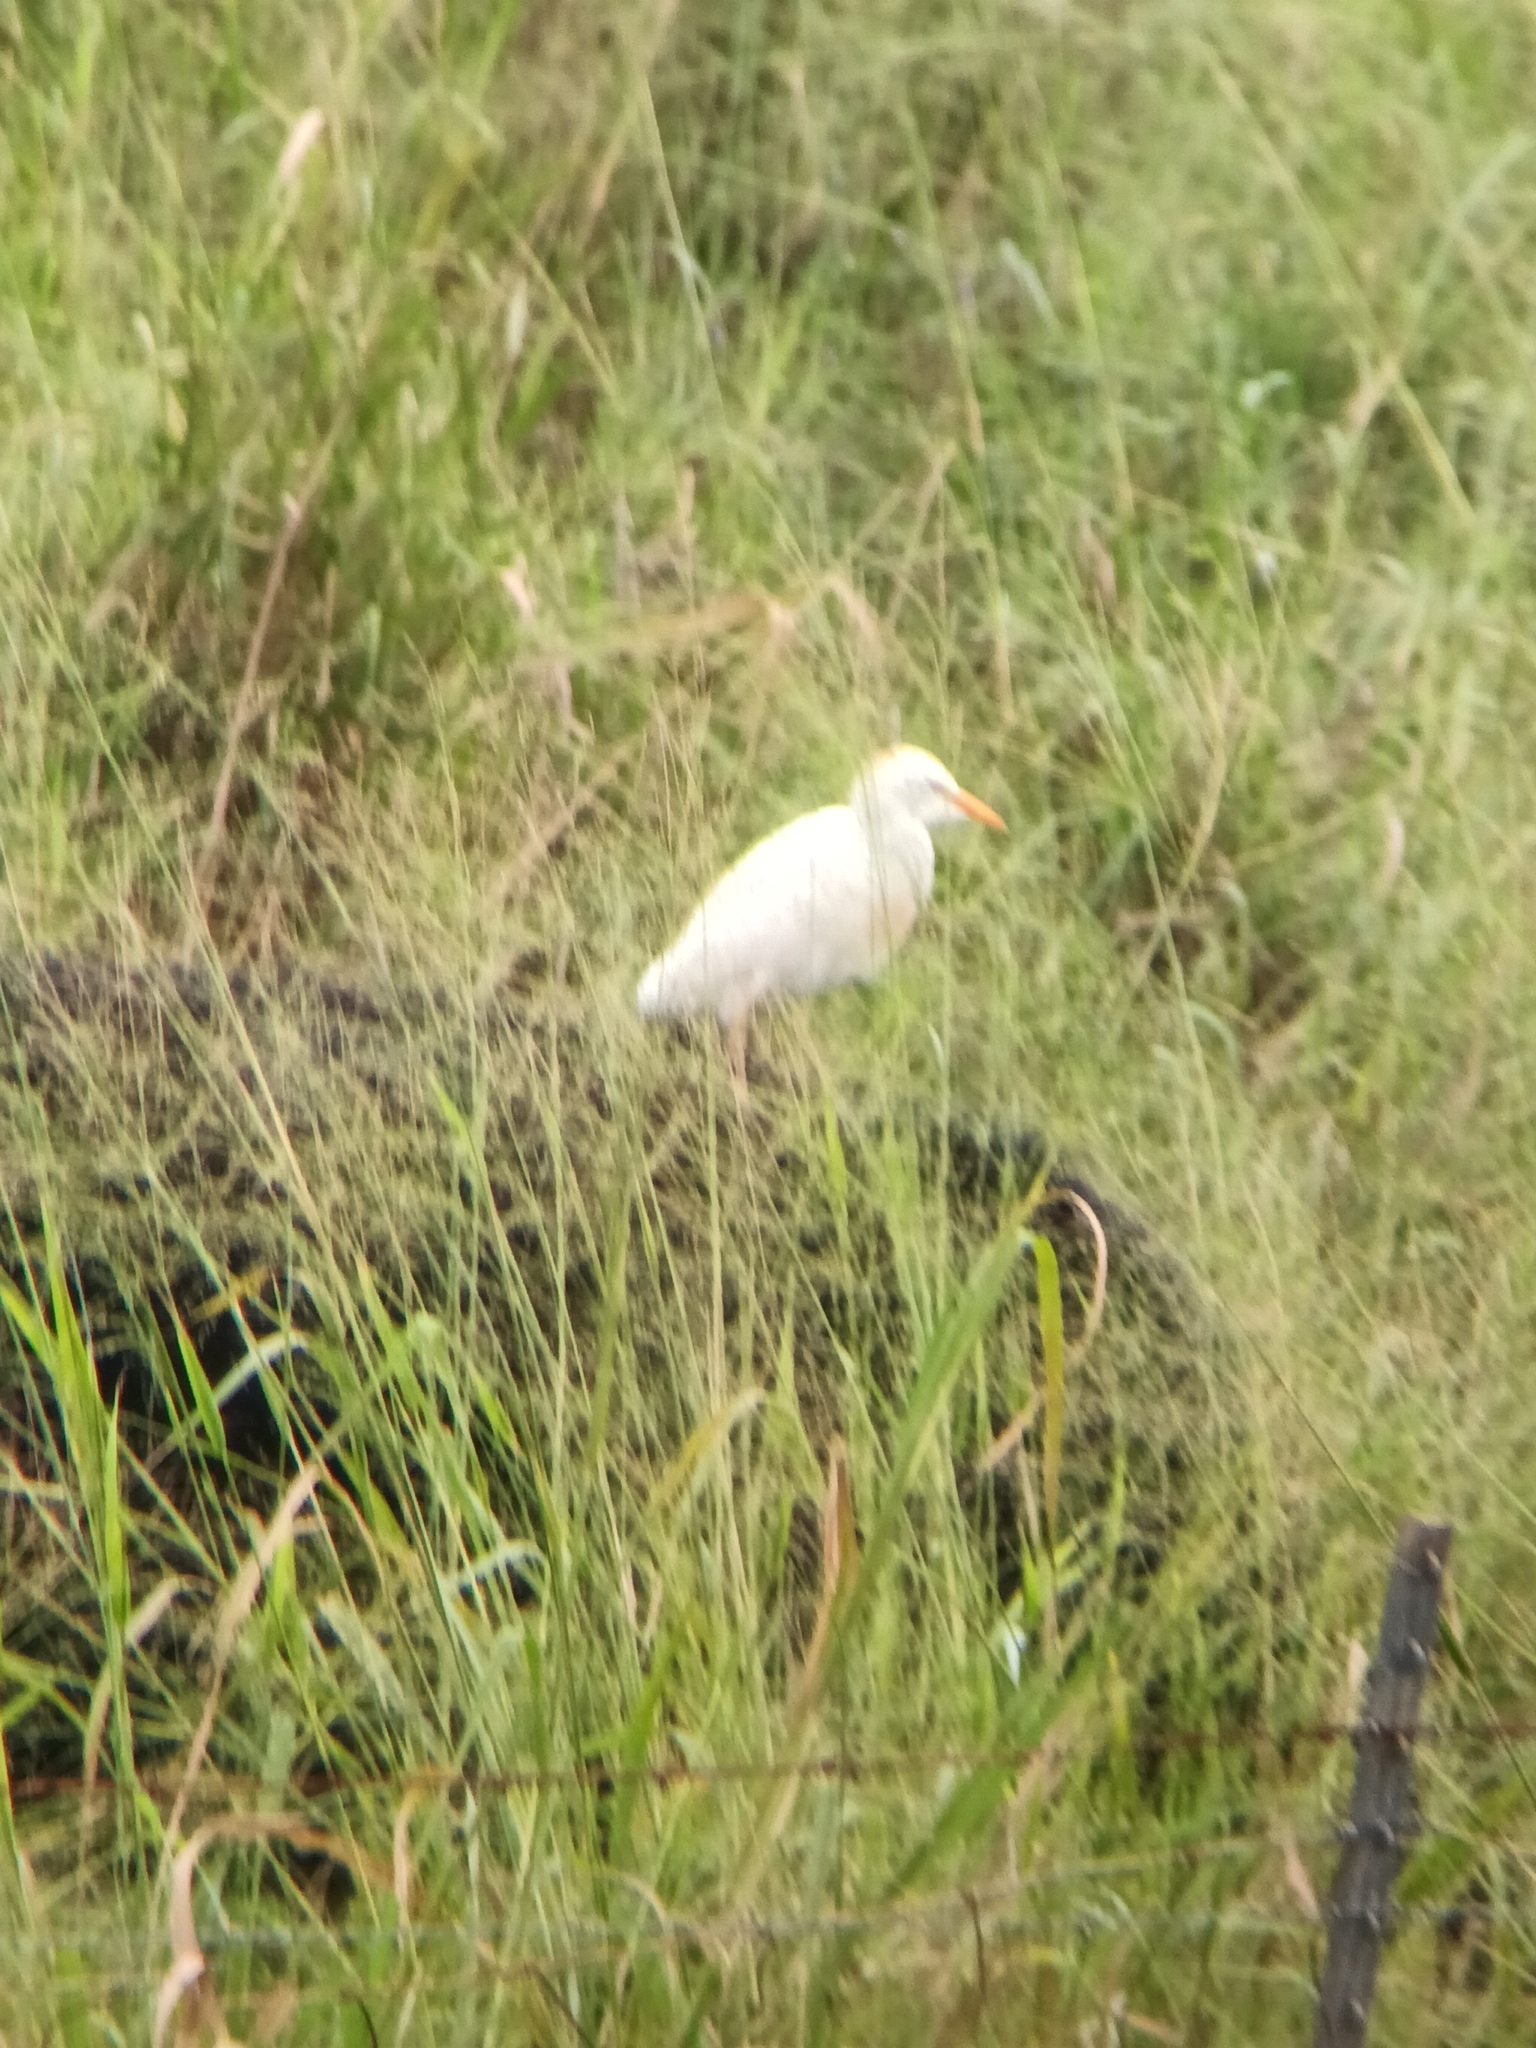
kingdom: Animalia
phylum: Chordata
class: Aves
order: Pelecaniformes
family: Ardeidae
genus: Bubulcus
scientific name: Bubulcus ibis
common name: Cattle egret
